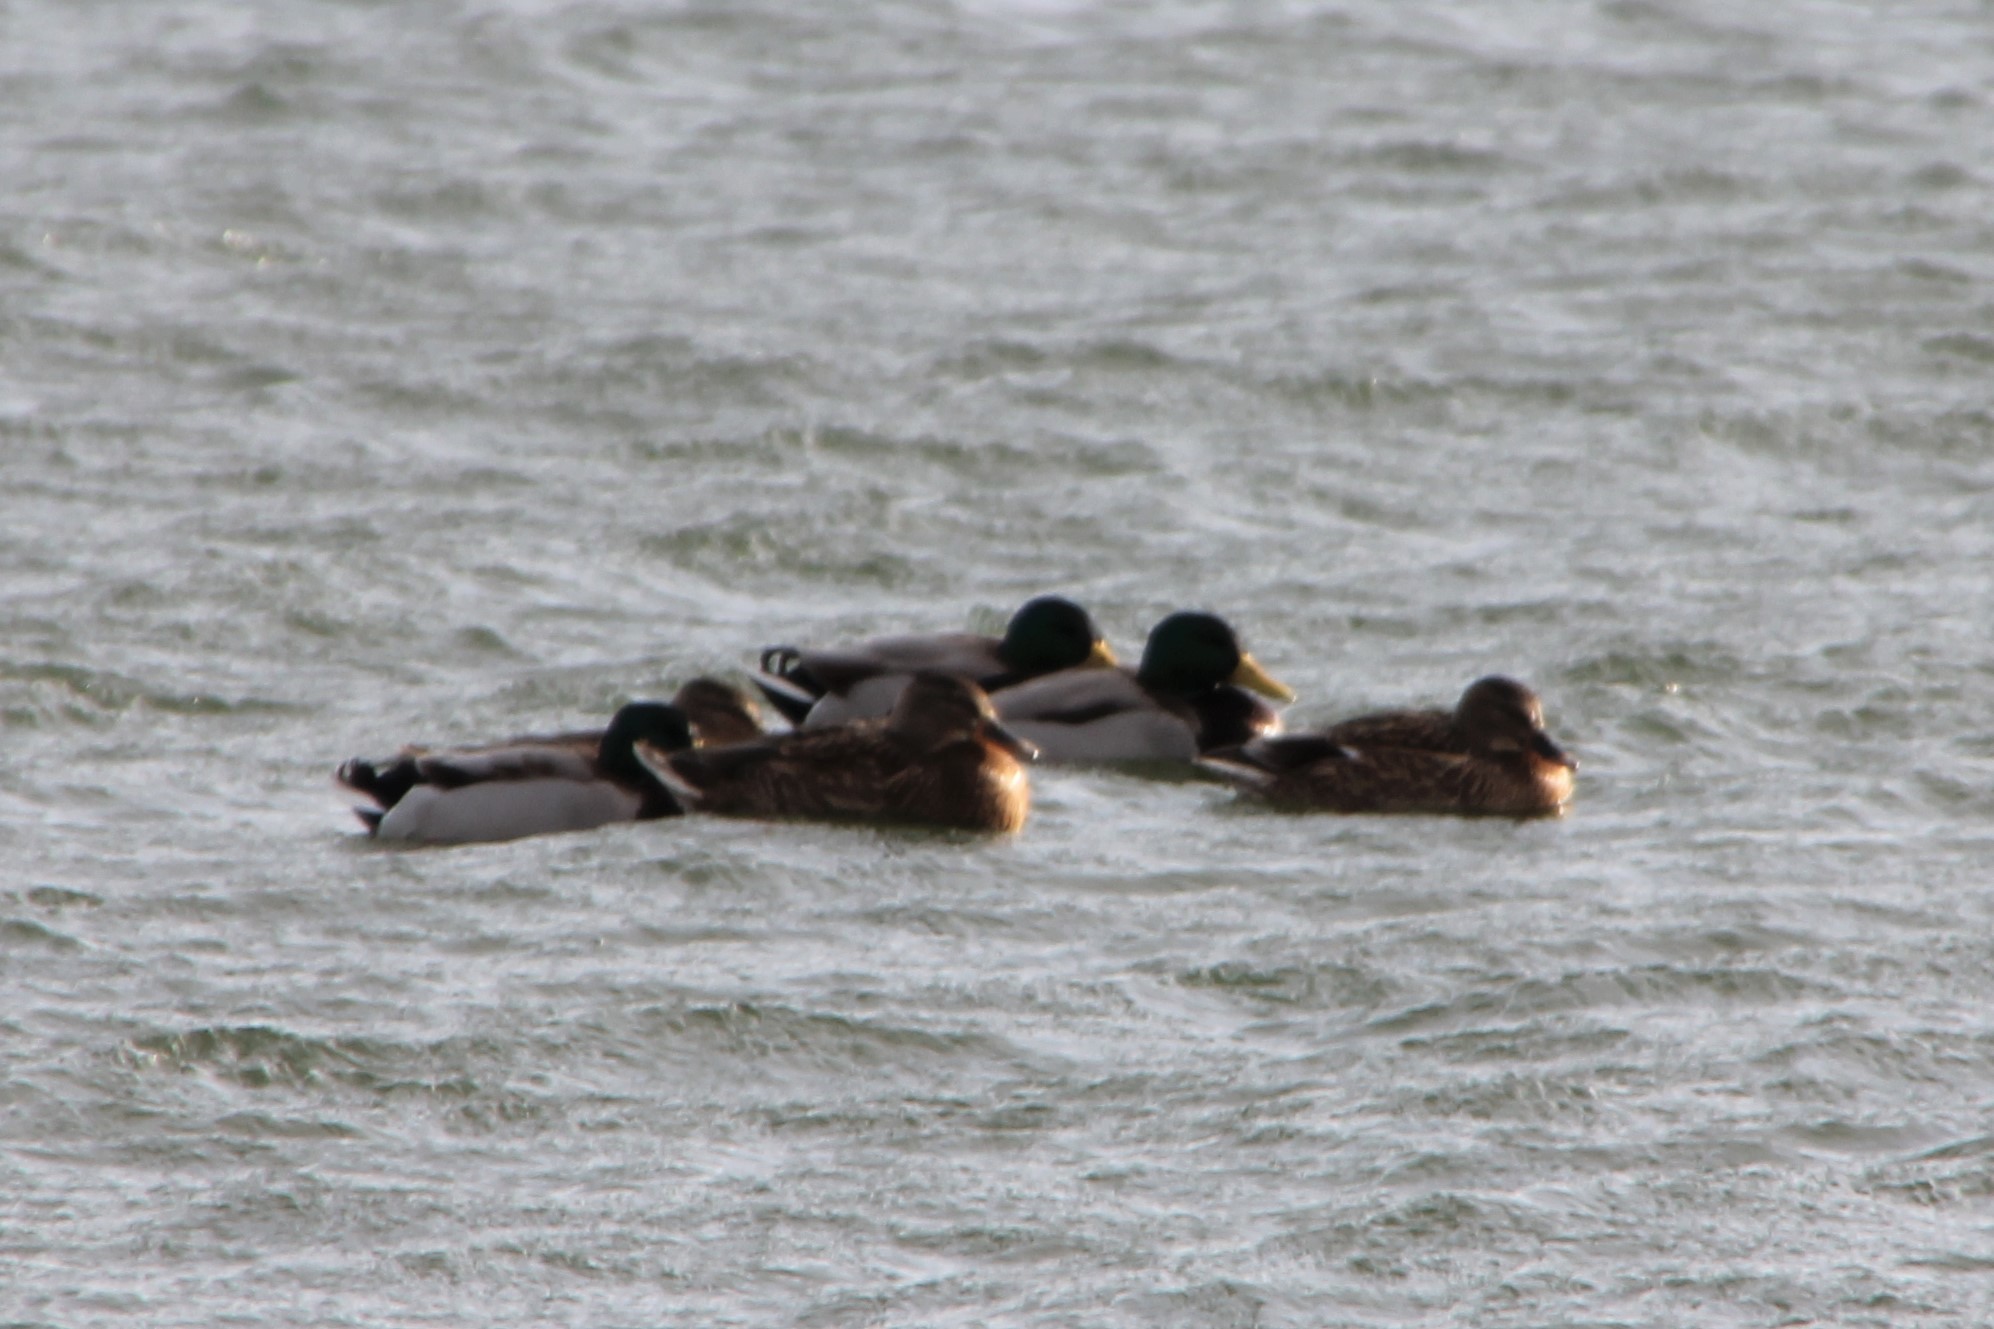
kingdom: Animalia
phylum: Chordata
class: Aves
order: Anseriformes
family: Anatidae
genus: Anas
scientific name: Anas platyrhynchos
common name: Mallard
